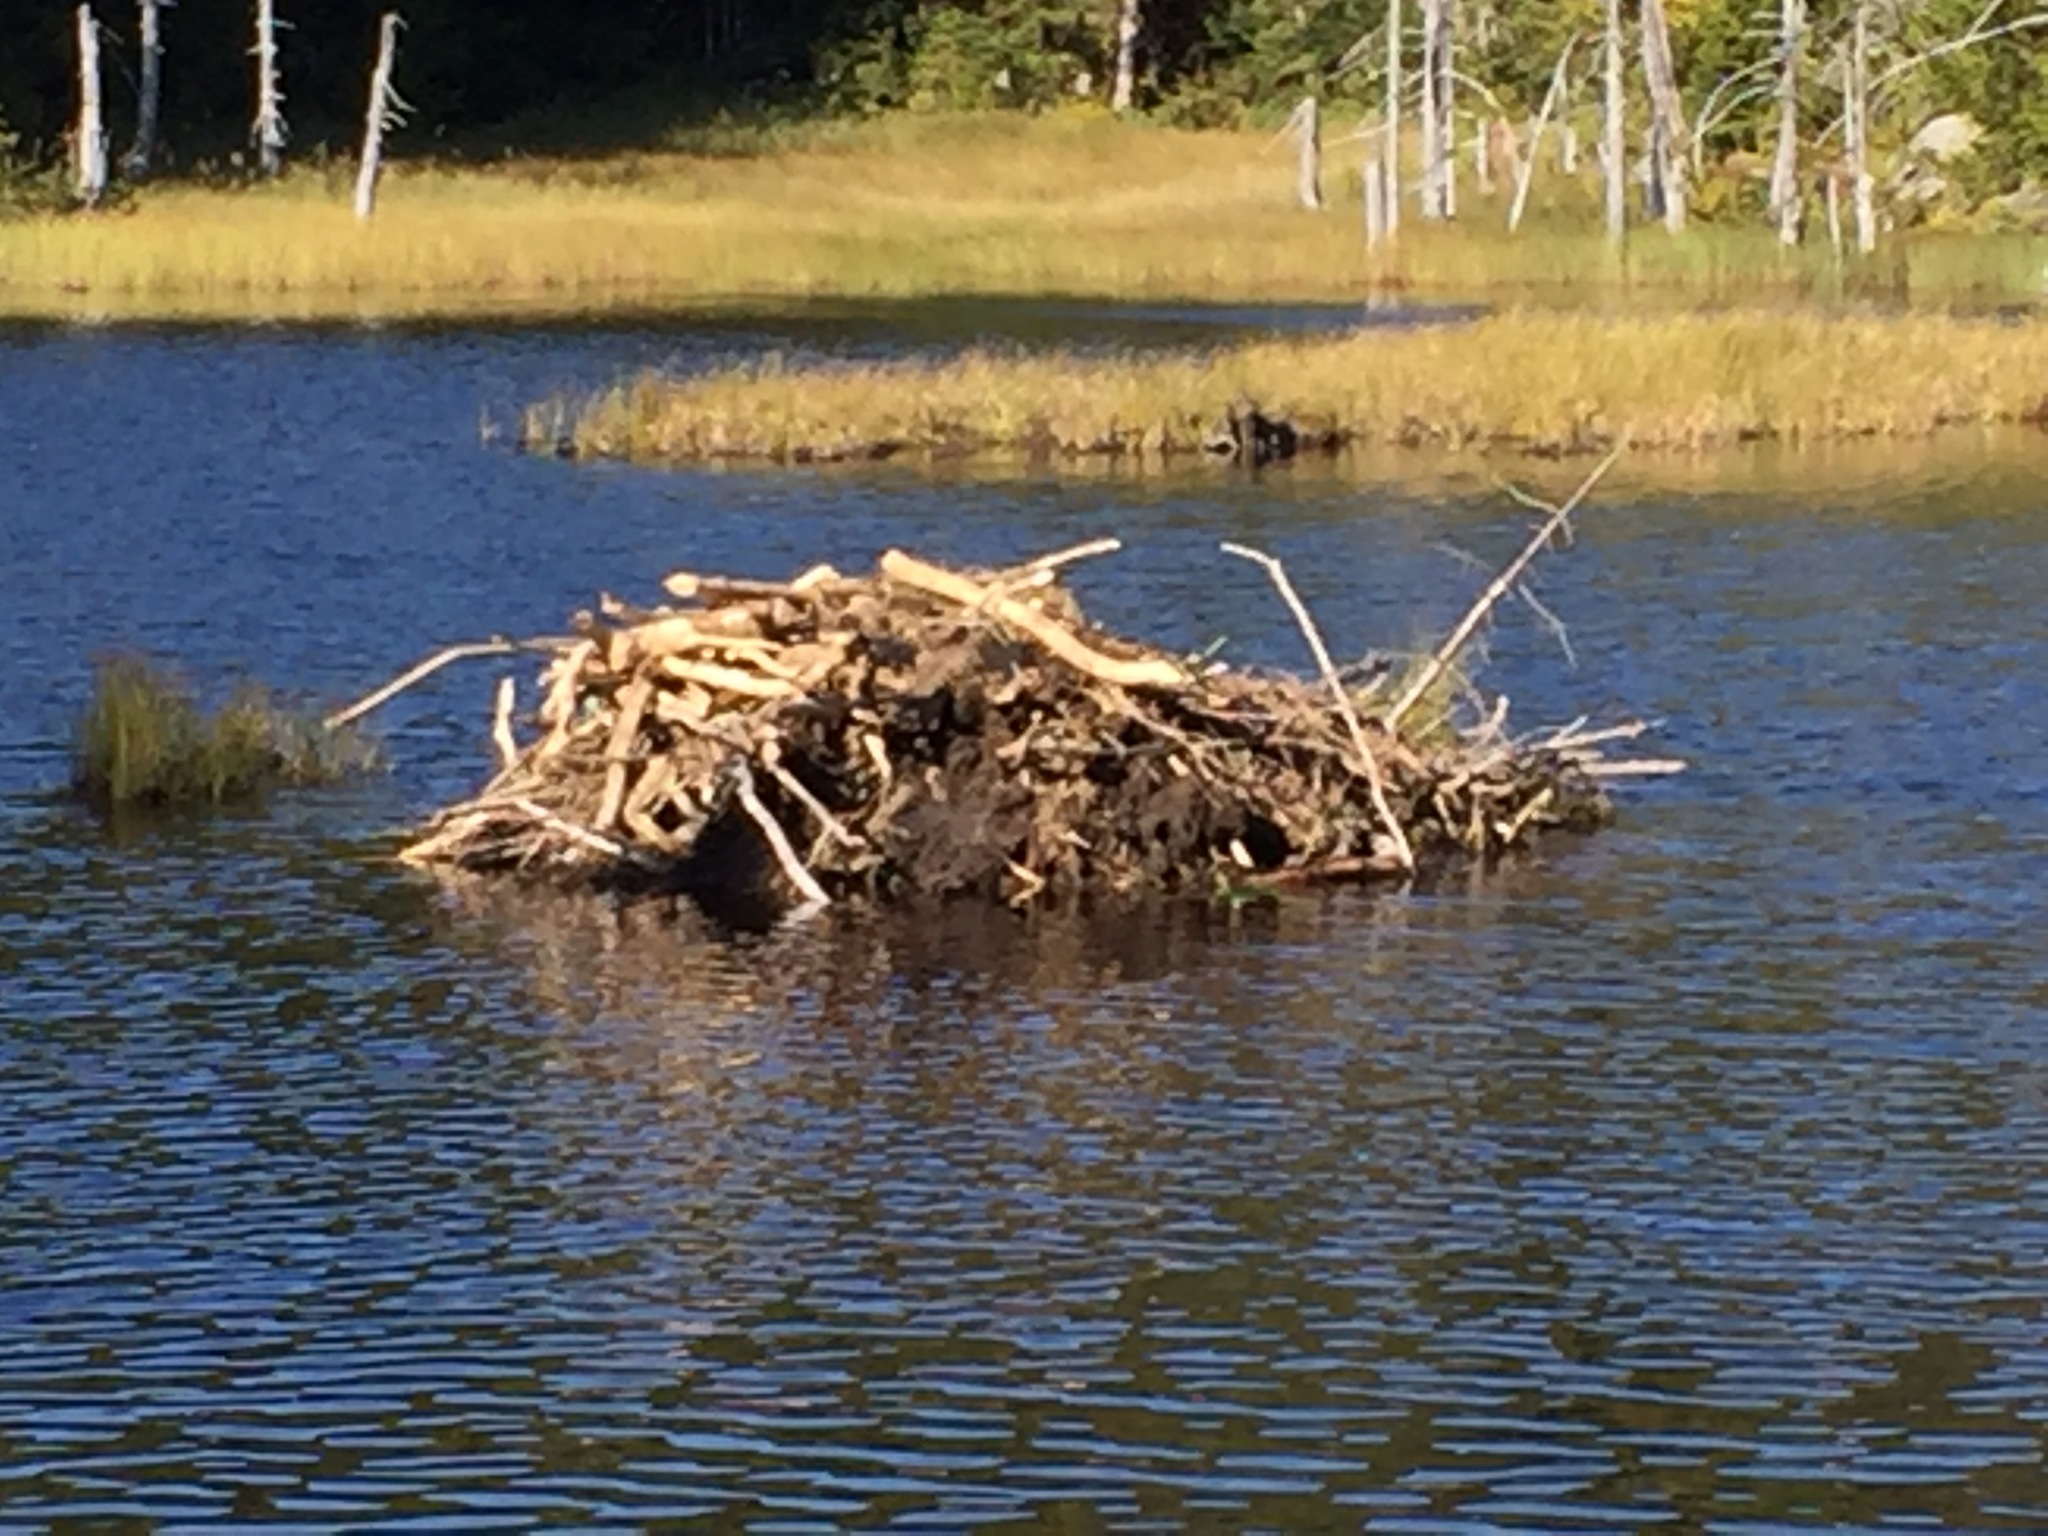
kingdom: Animalia
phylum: Chordata
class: Mammalia
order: Rodentia
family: Castoridae
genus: Castor
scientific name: Castor canadensis
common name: American beaver
